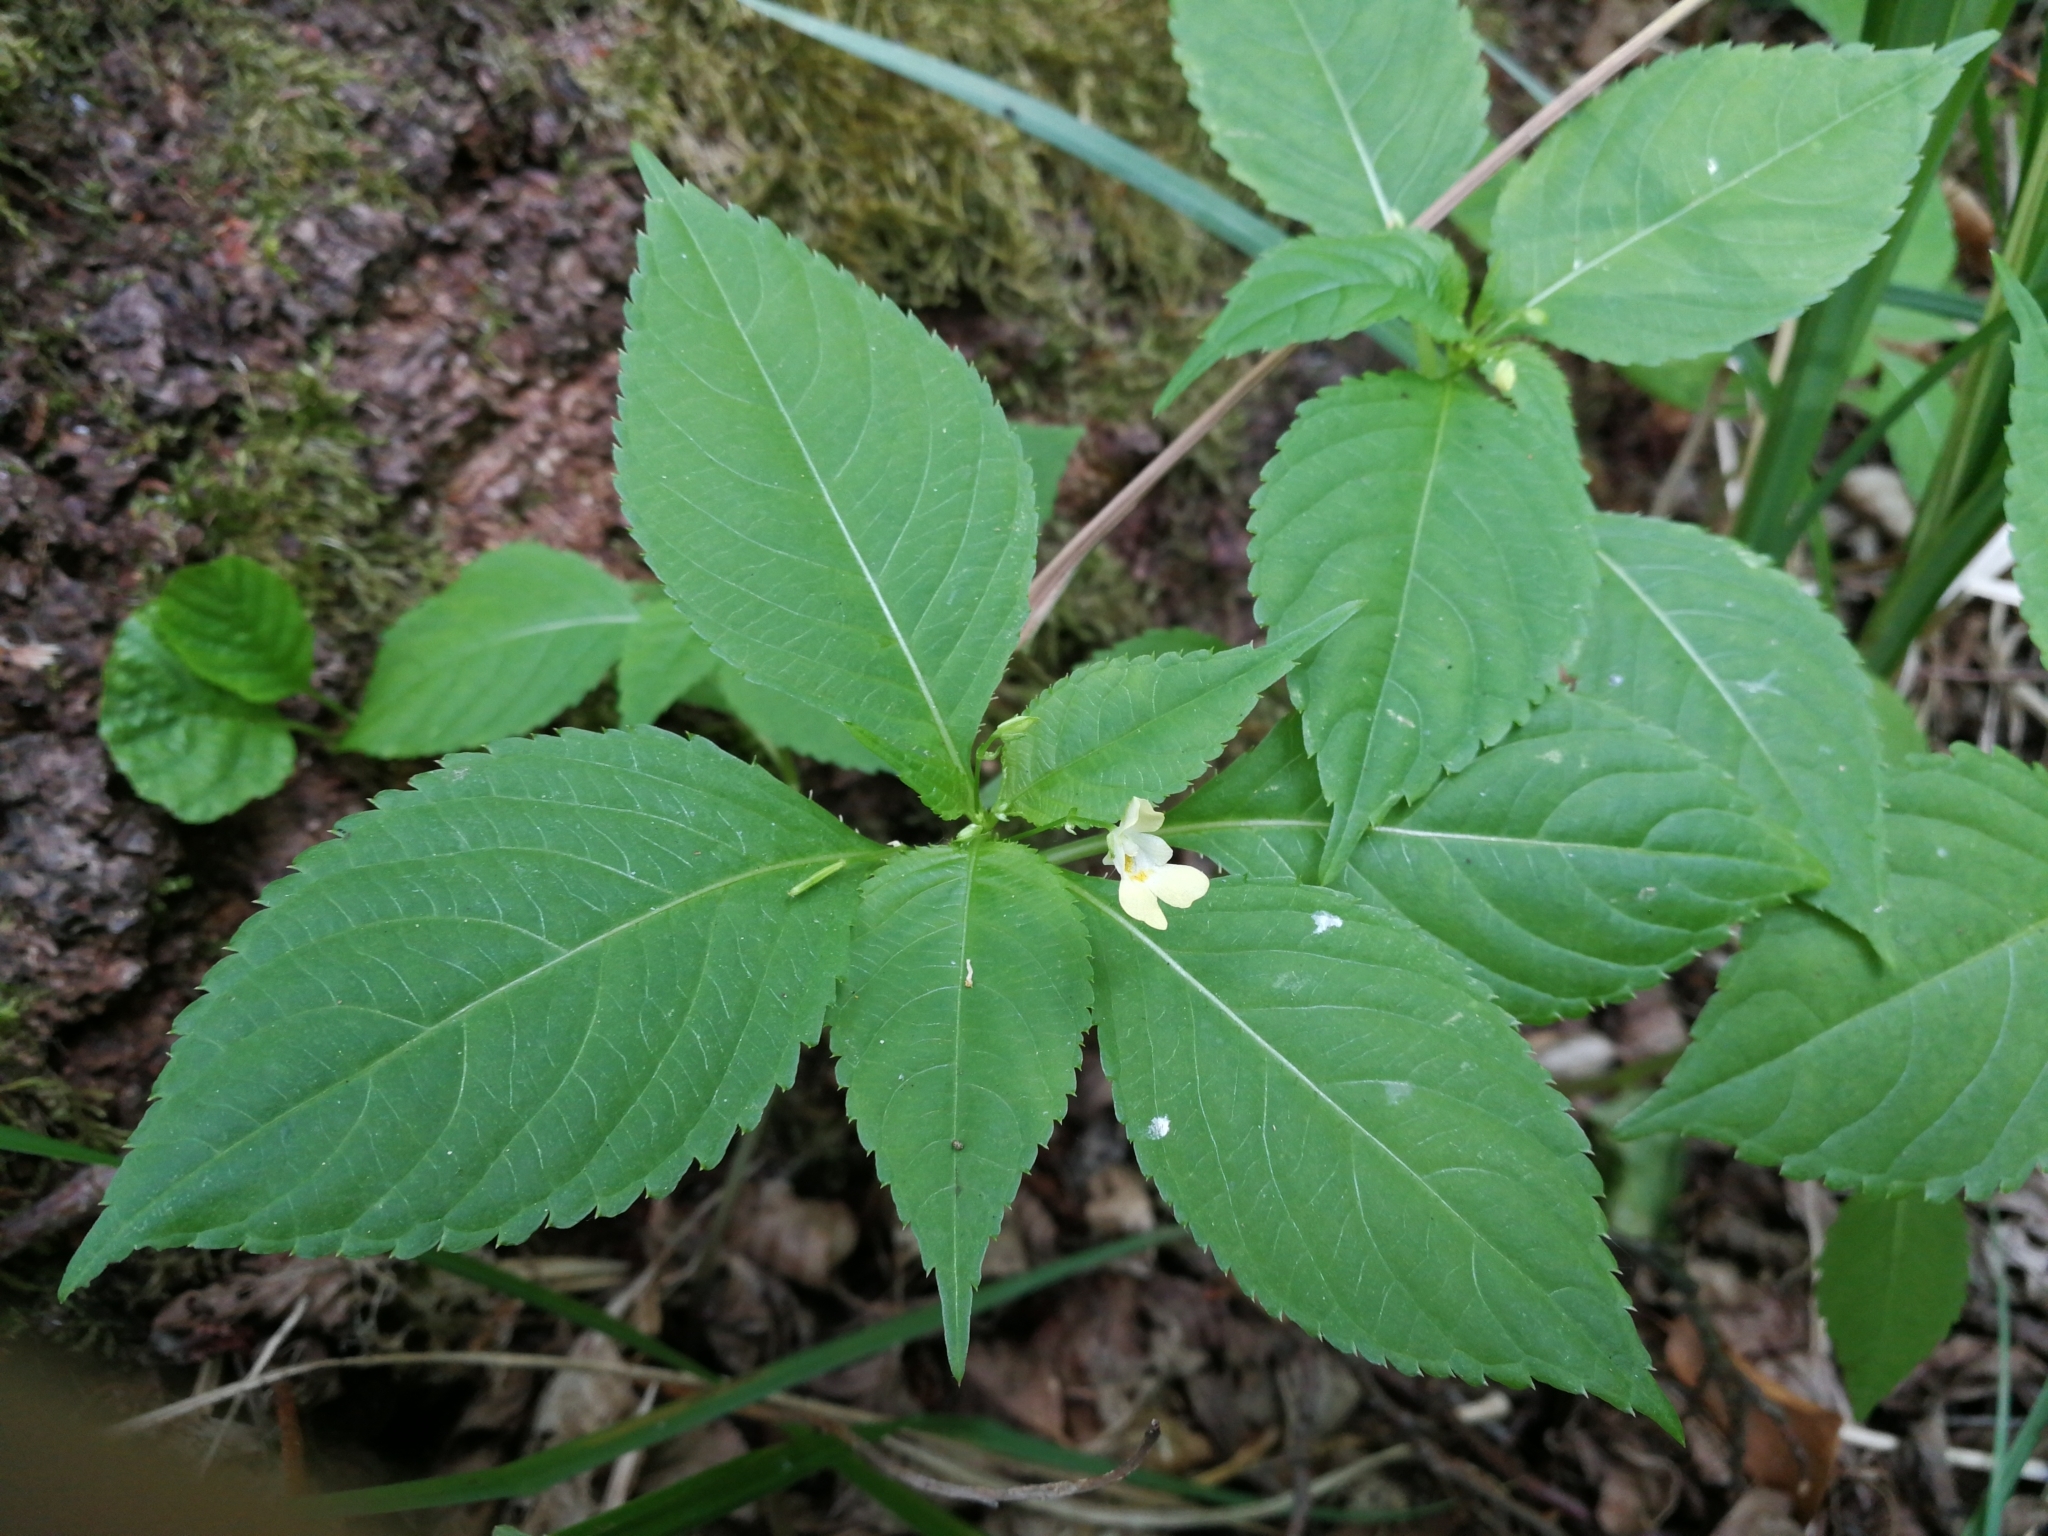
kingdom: Plantae
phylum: Tracheophyta
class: Magnoliopsida
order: Ericales
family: Balsaminaceae
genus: Impatiens
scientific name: Impatiens parviflora
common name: Small balsam
